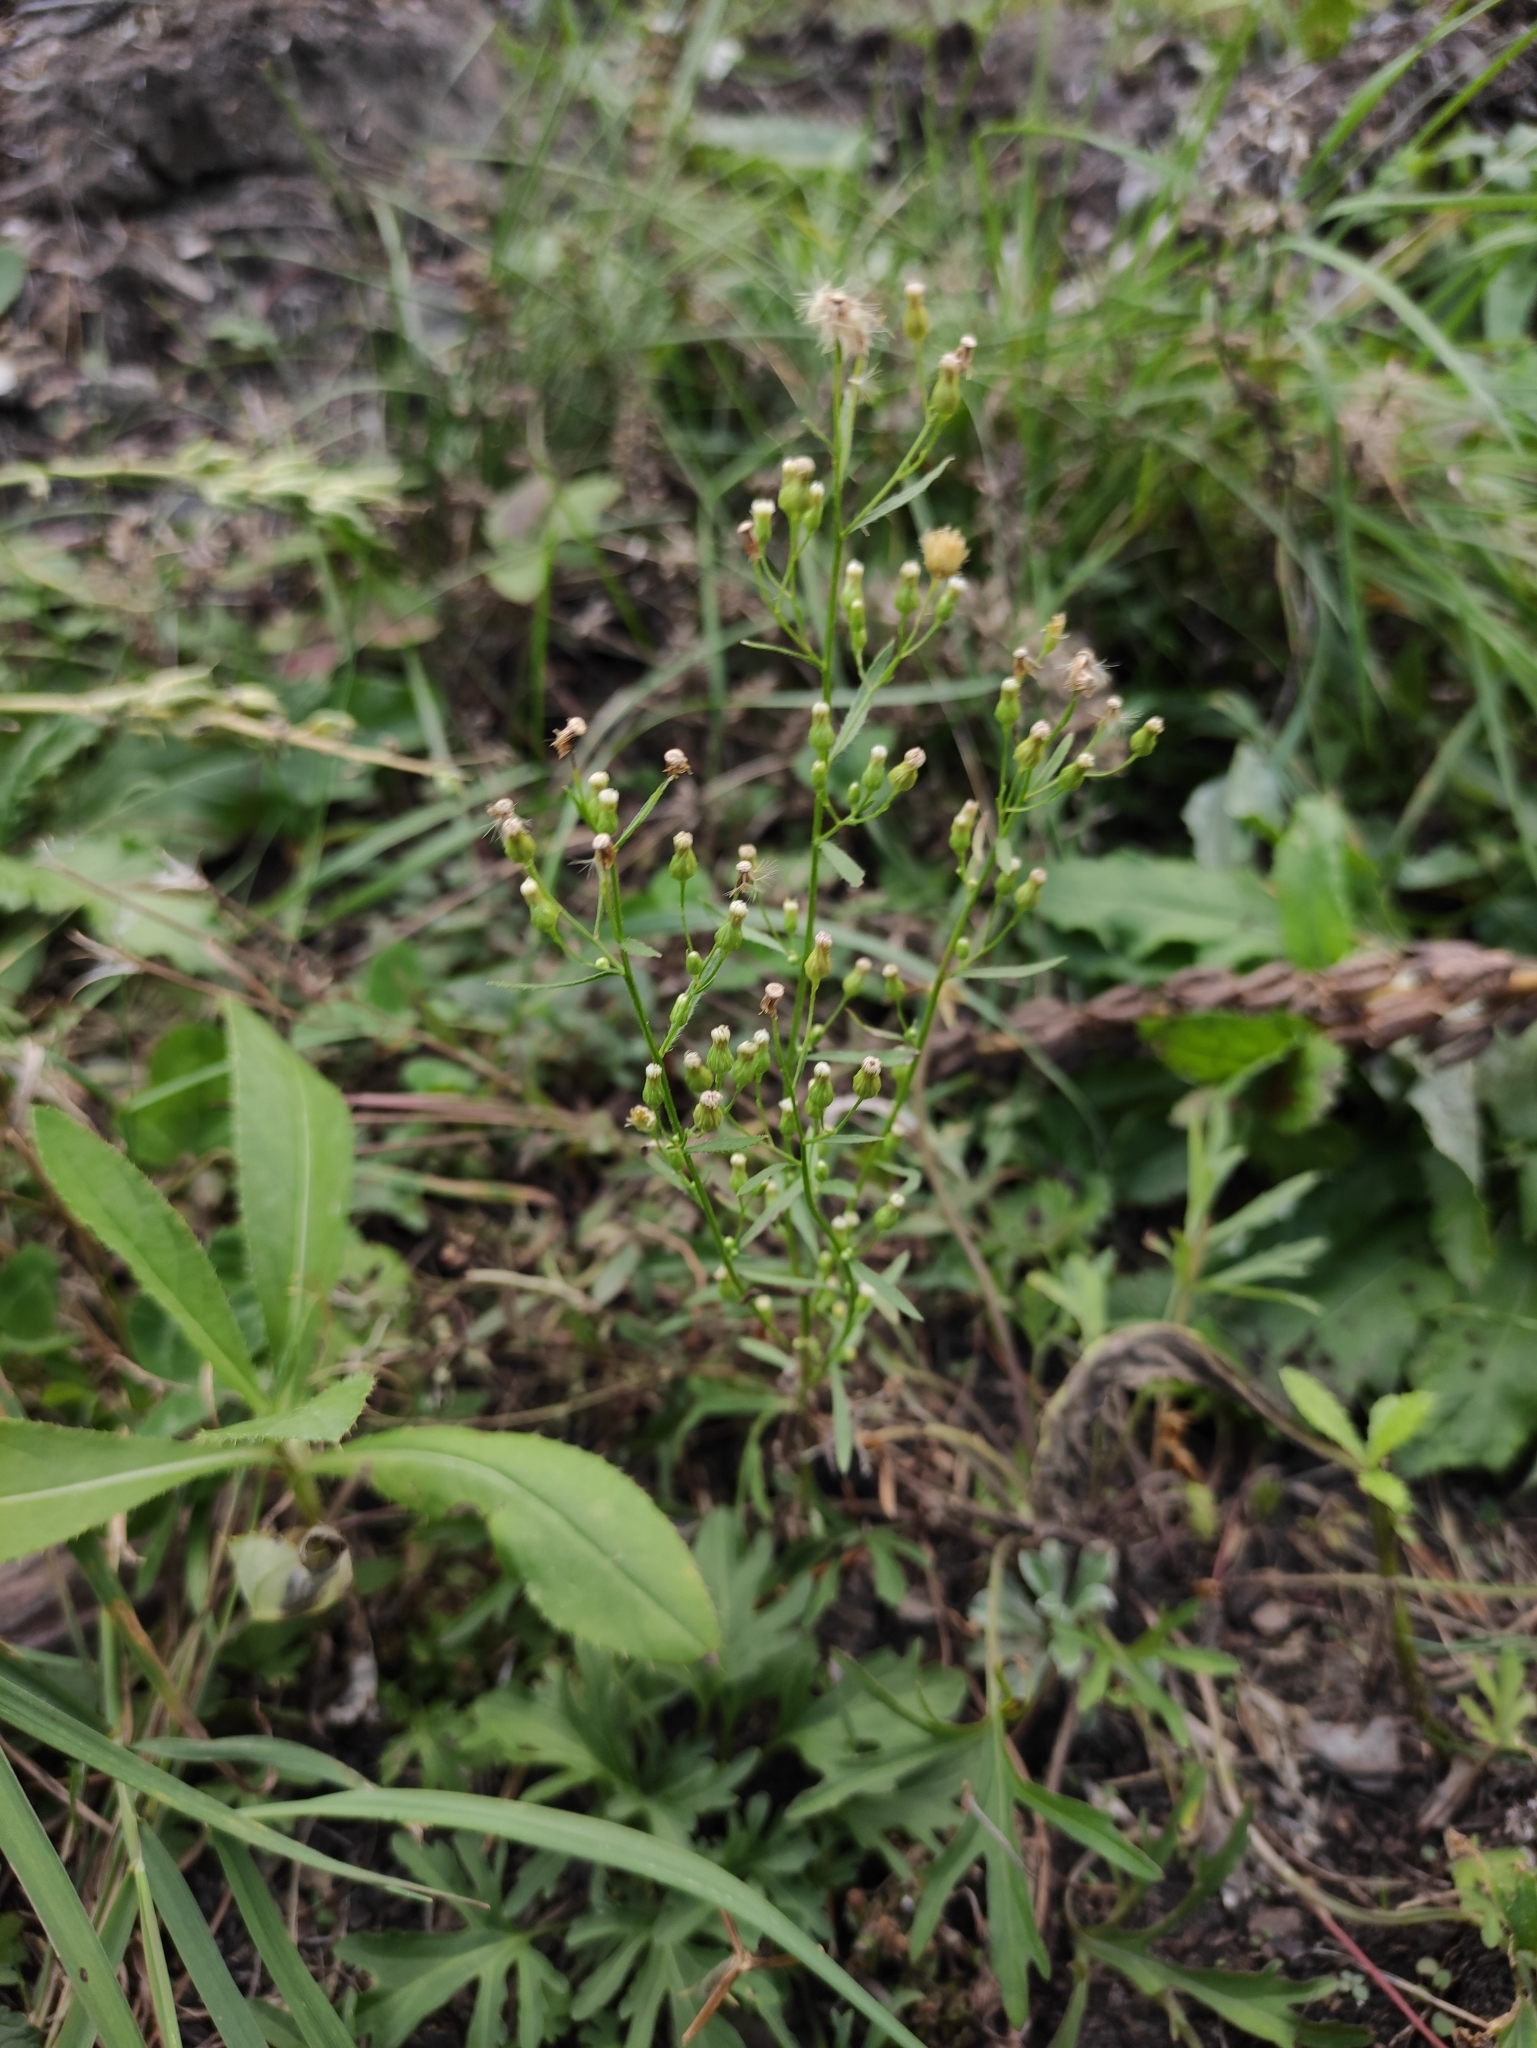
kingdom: Plantae
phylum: Tracheophyta
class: Magnoliopsida
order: Asterales
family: Asteraceae
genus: Erigeron
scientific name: Erigeron canadensis
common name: Canadian fleabane
